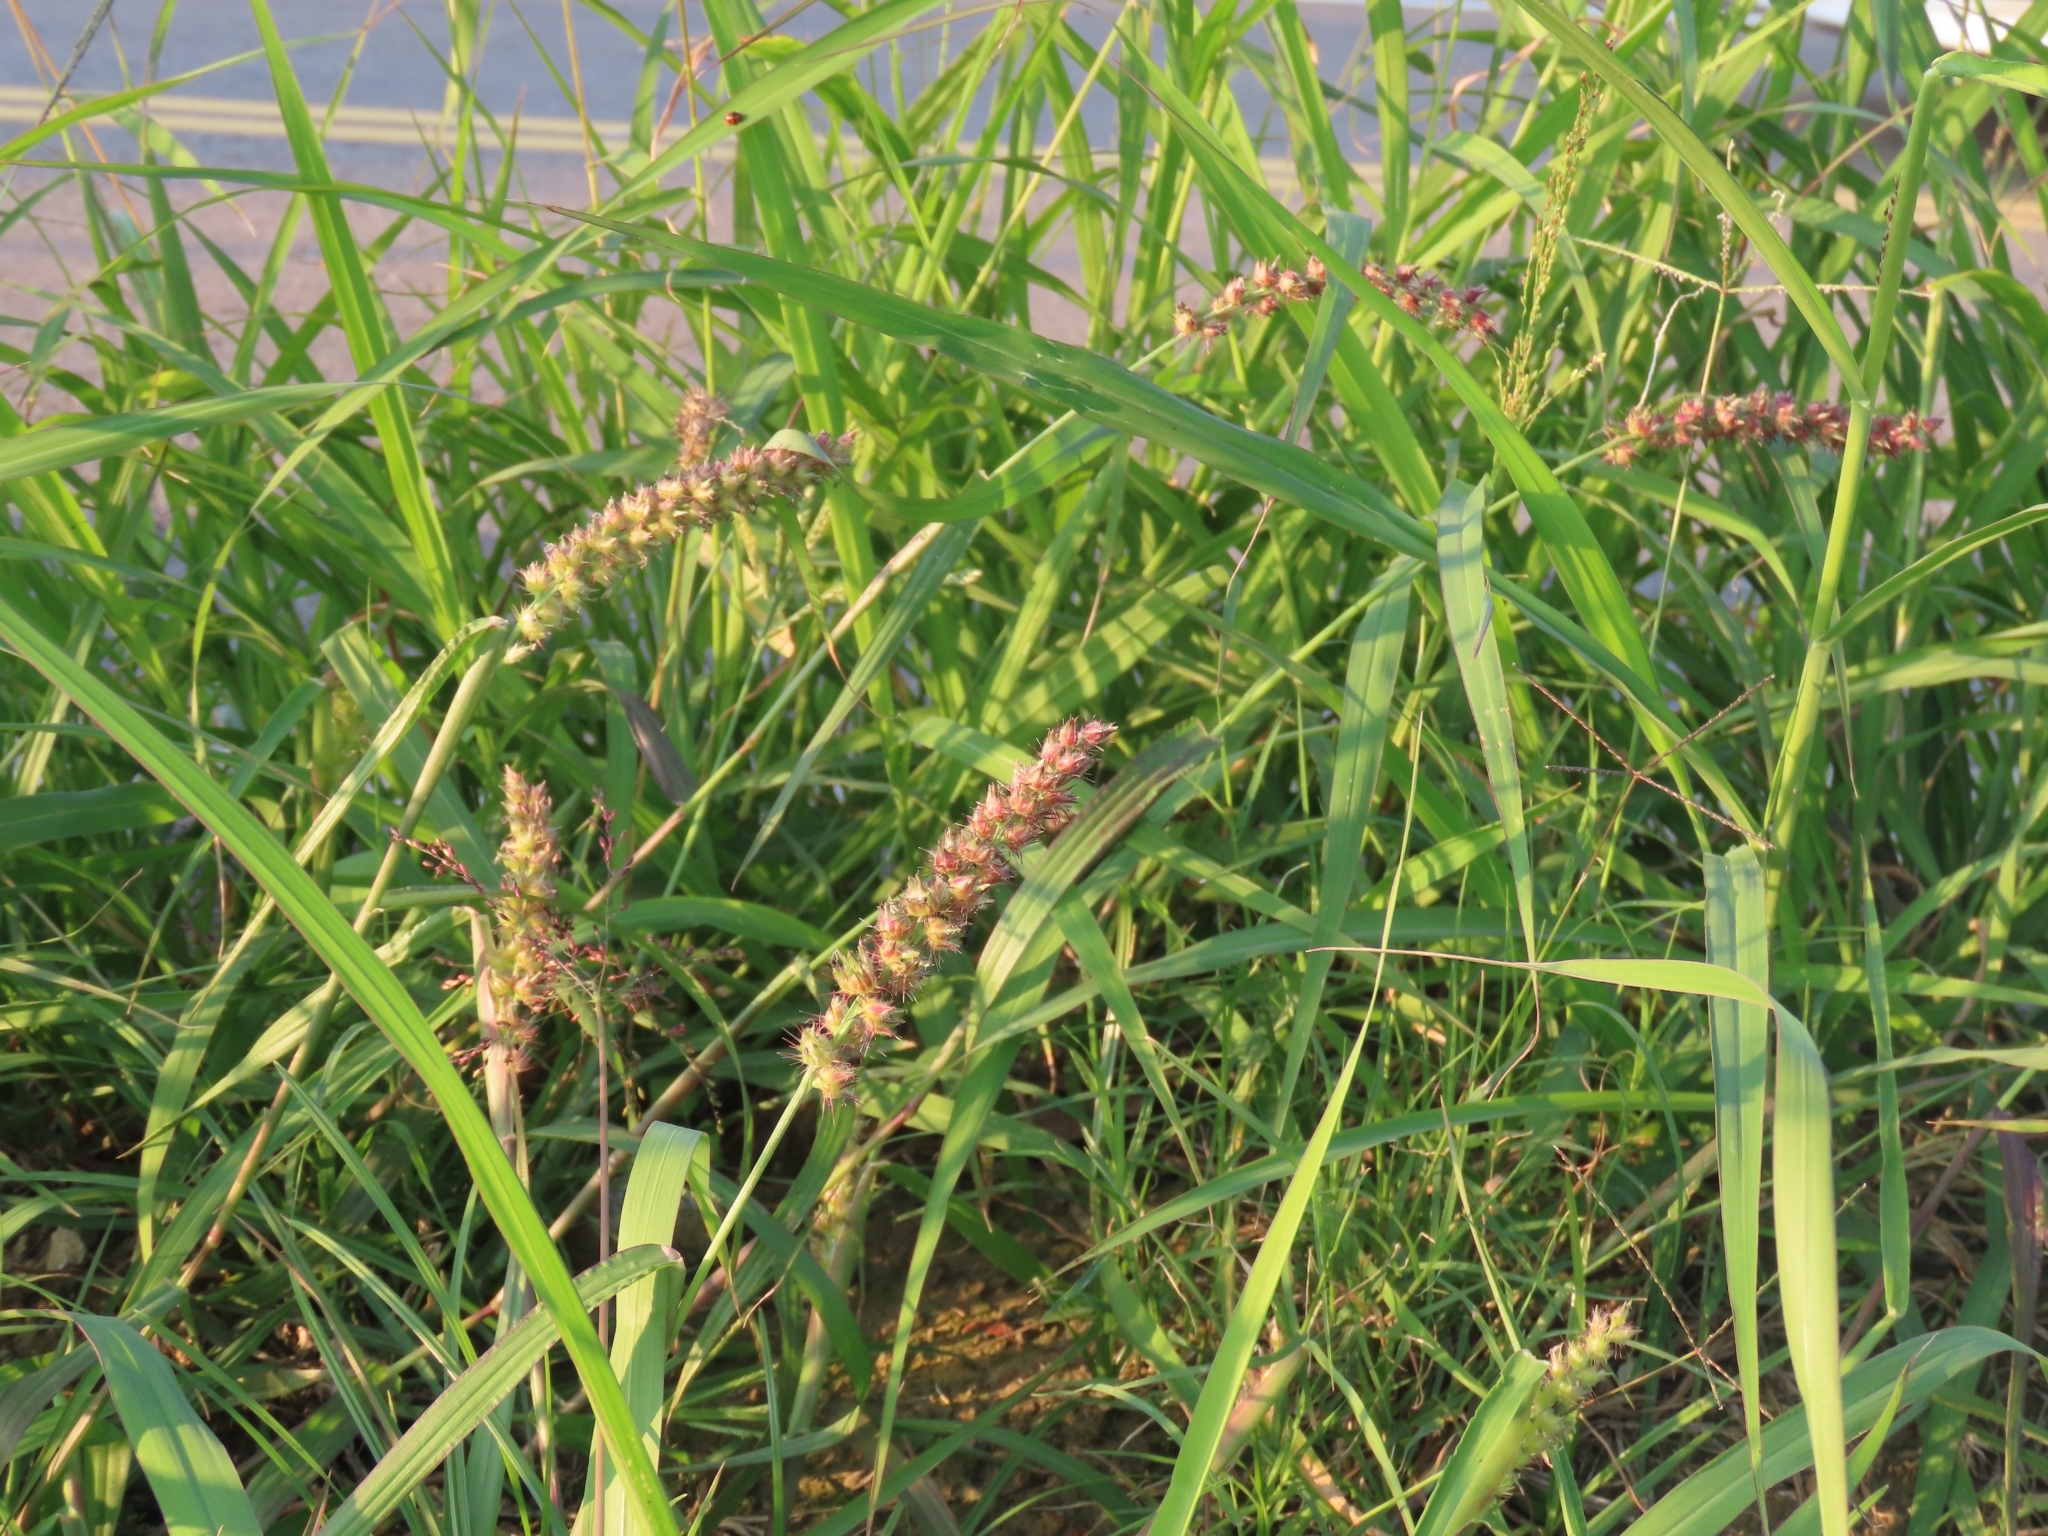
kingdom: Plantae
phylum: Tracheophyta
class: Liliopsida
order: Poales
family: Poaceae
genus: Cenchrus
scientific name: Cenchrus echinatus
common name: Southern sandbur
